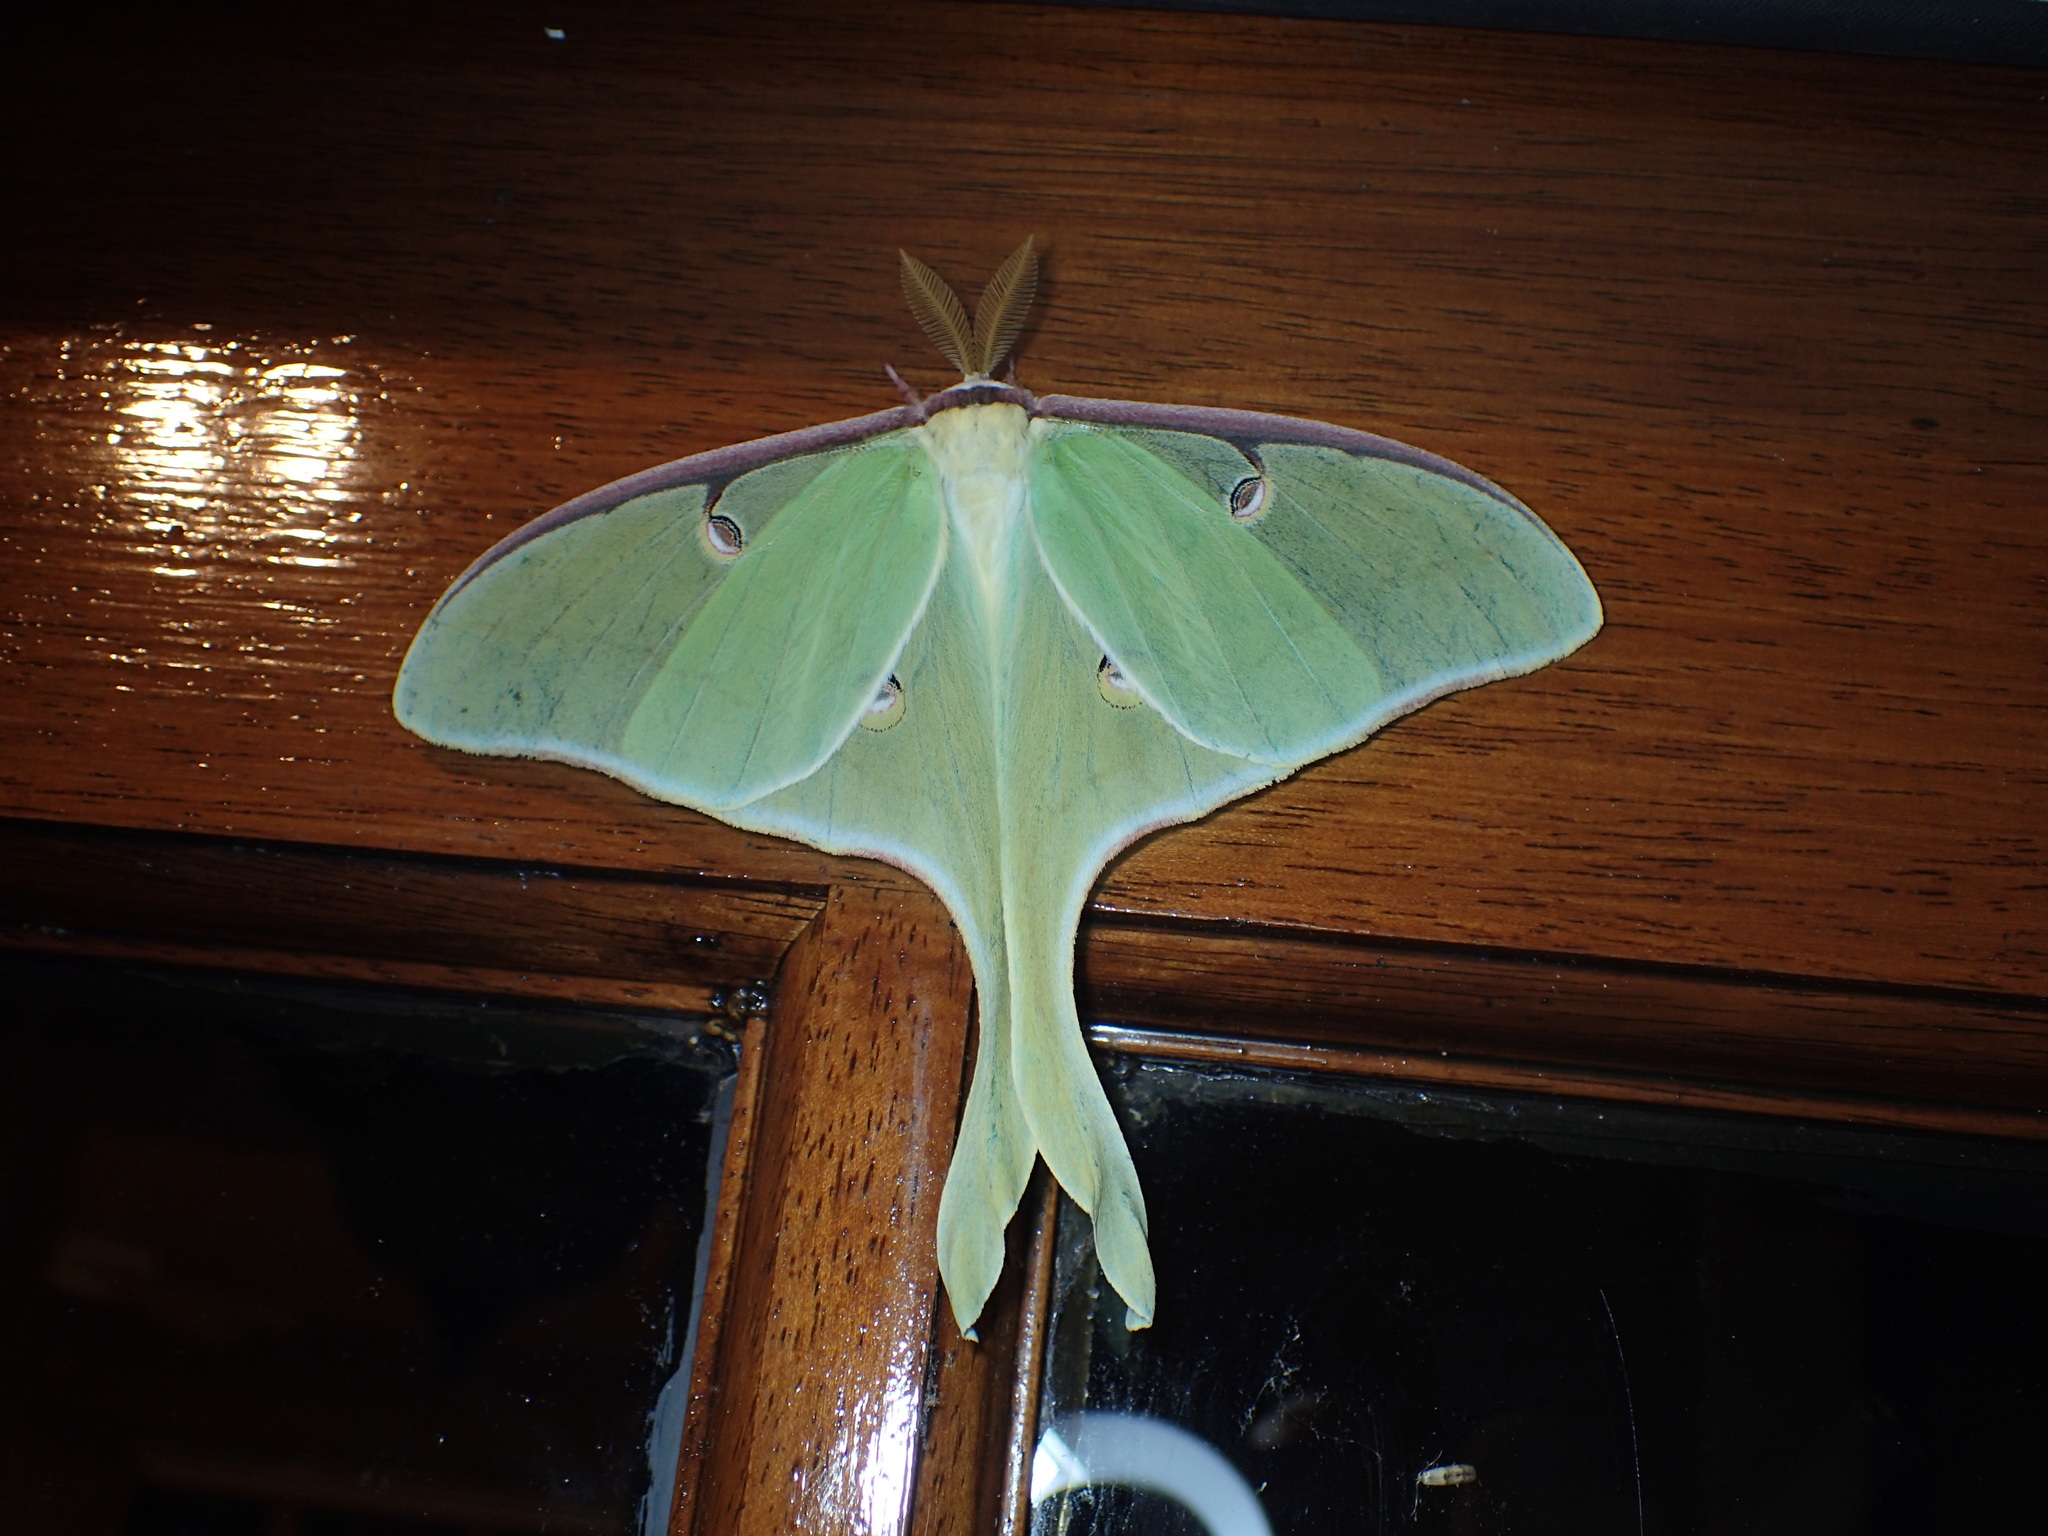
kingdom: Animalia
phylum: Arthropoda
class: Insecta
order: Lepidoptera
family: Saturniidae
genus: Actias
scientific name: Actias luna
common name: Luna moth
